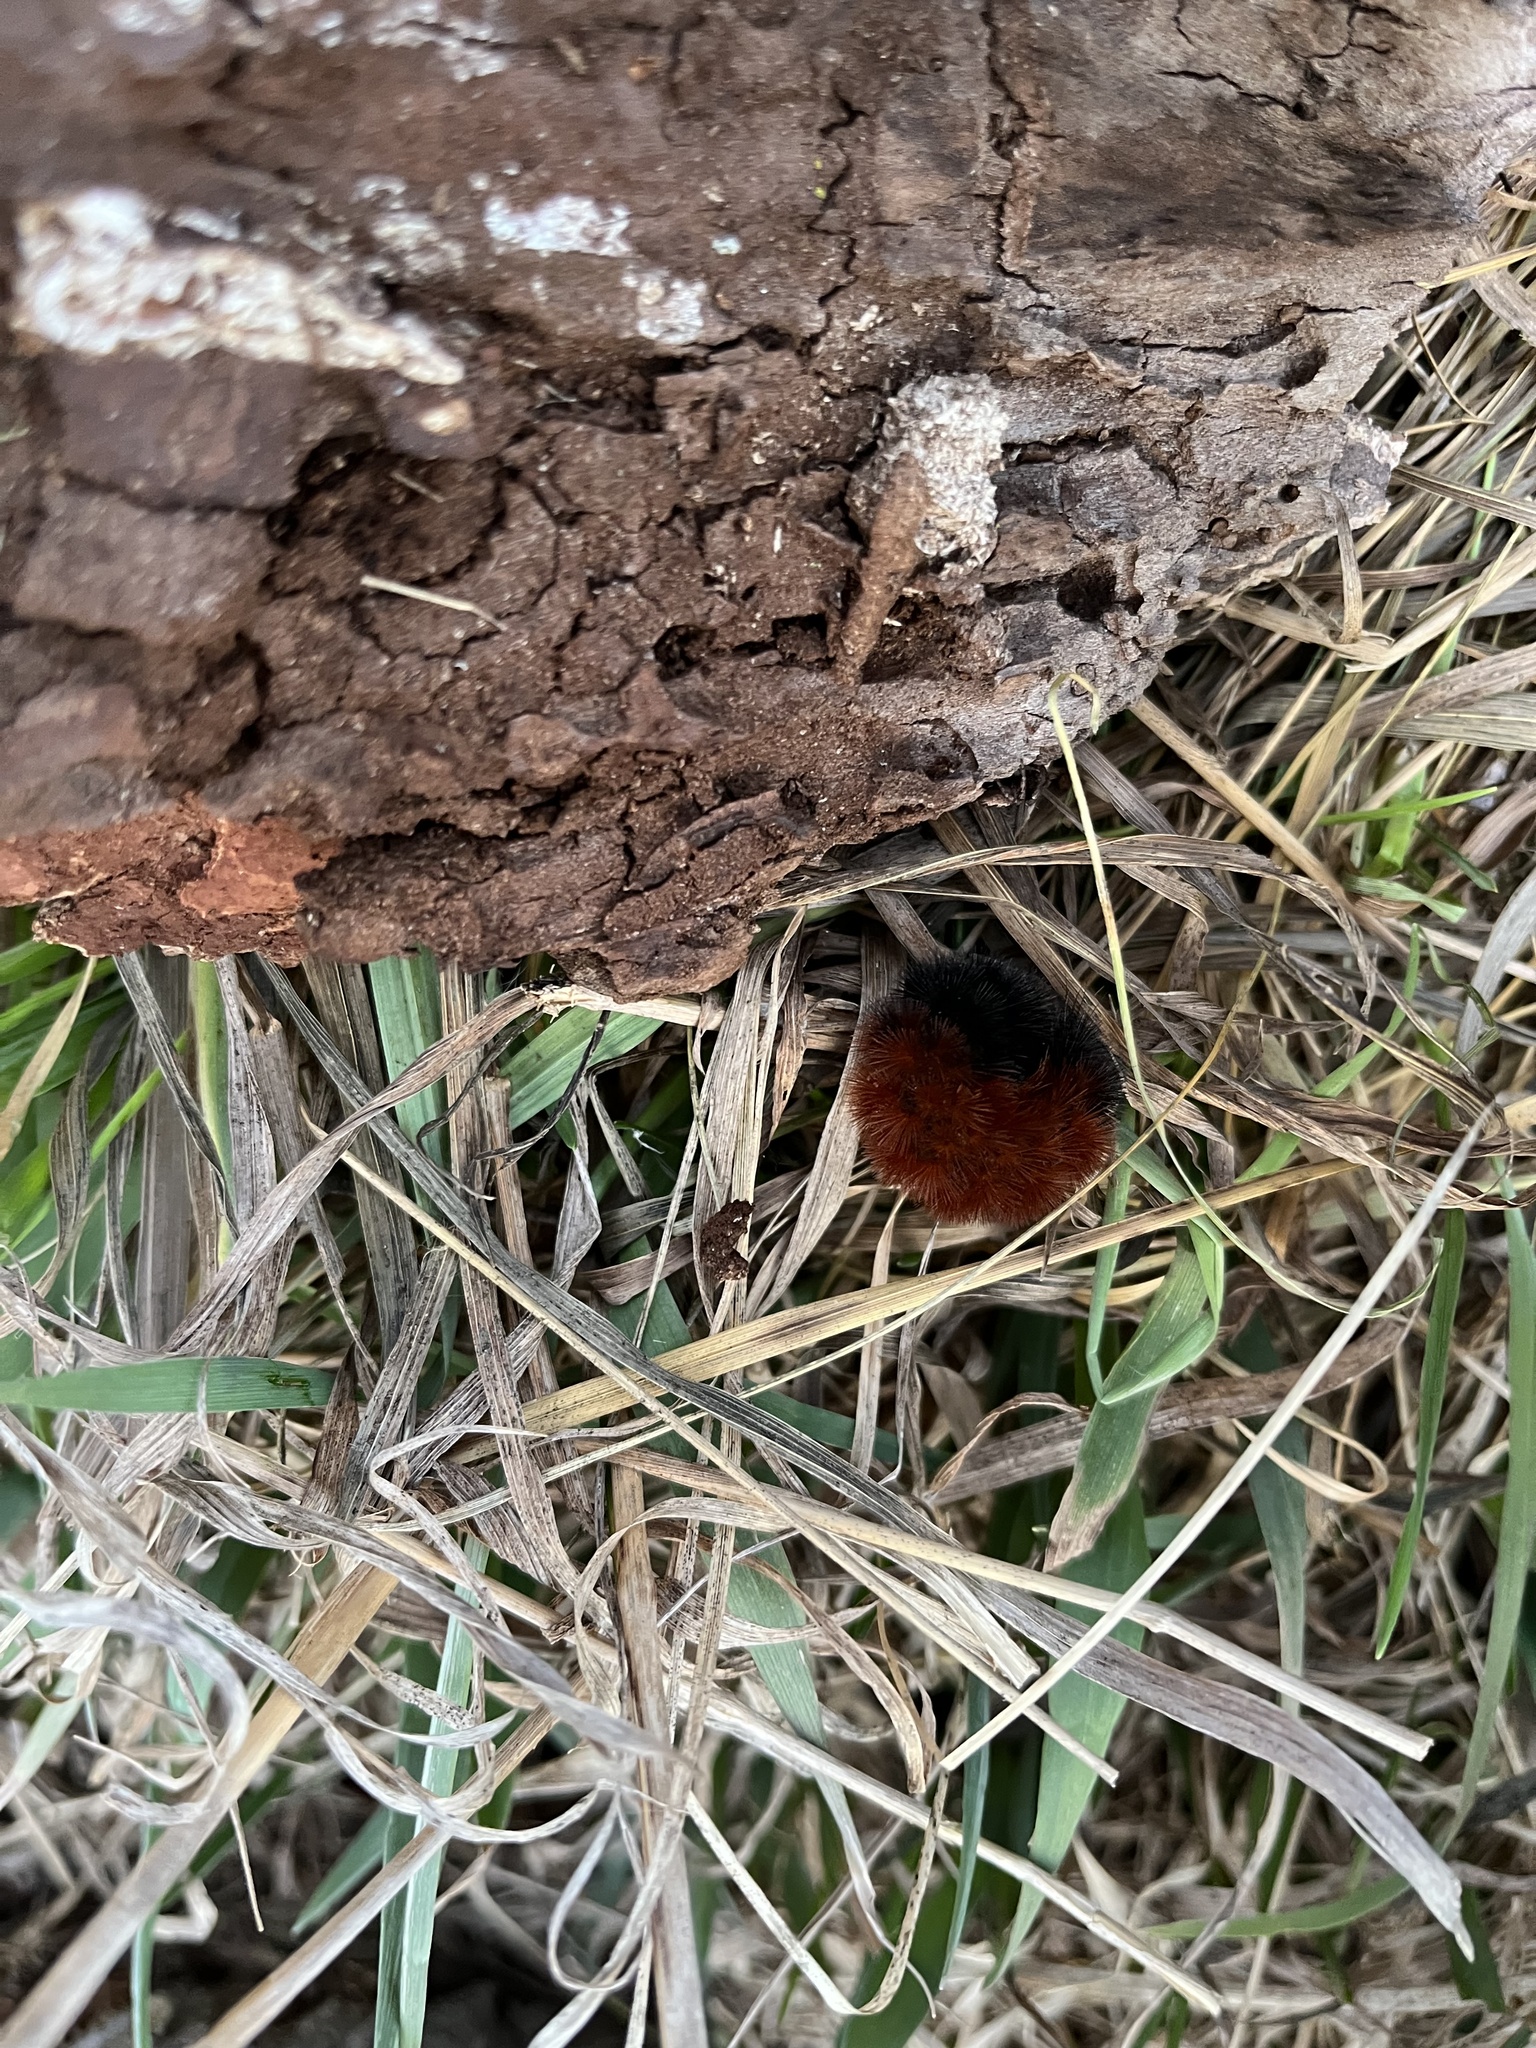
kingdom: Animalia
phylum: Arthropoda
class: Insecta
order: Lepidoptera
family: Erebidae
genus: Pyrrharctia
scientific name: Pyrrharctia isabella
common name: Isabella tiger moth
